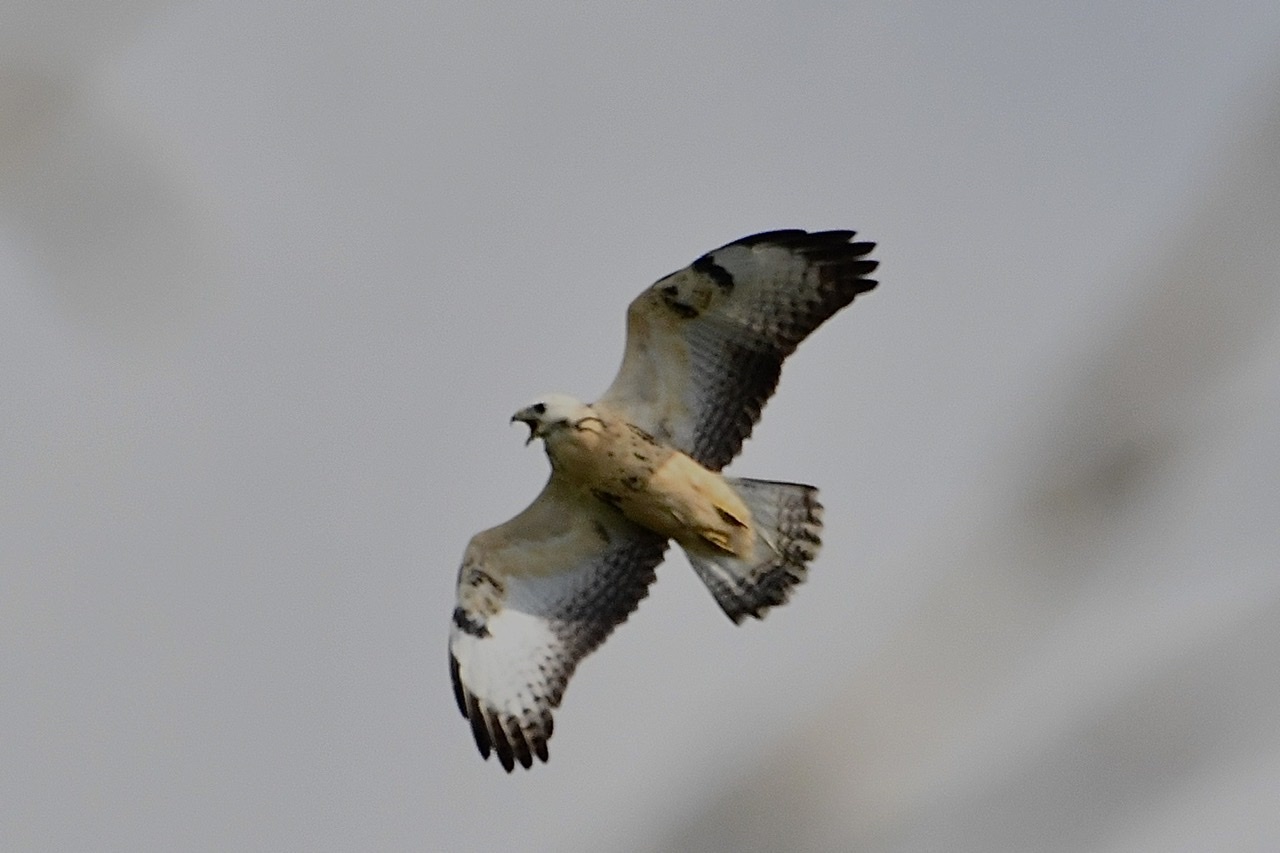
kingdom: Animalia
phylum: Chordata
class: Aves
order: Accipitriformes
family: Accipitridae
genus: Buteo
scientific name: Buteo buteo
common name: Common buzzard
